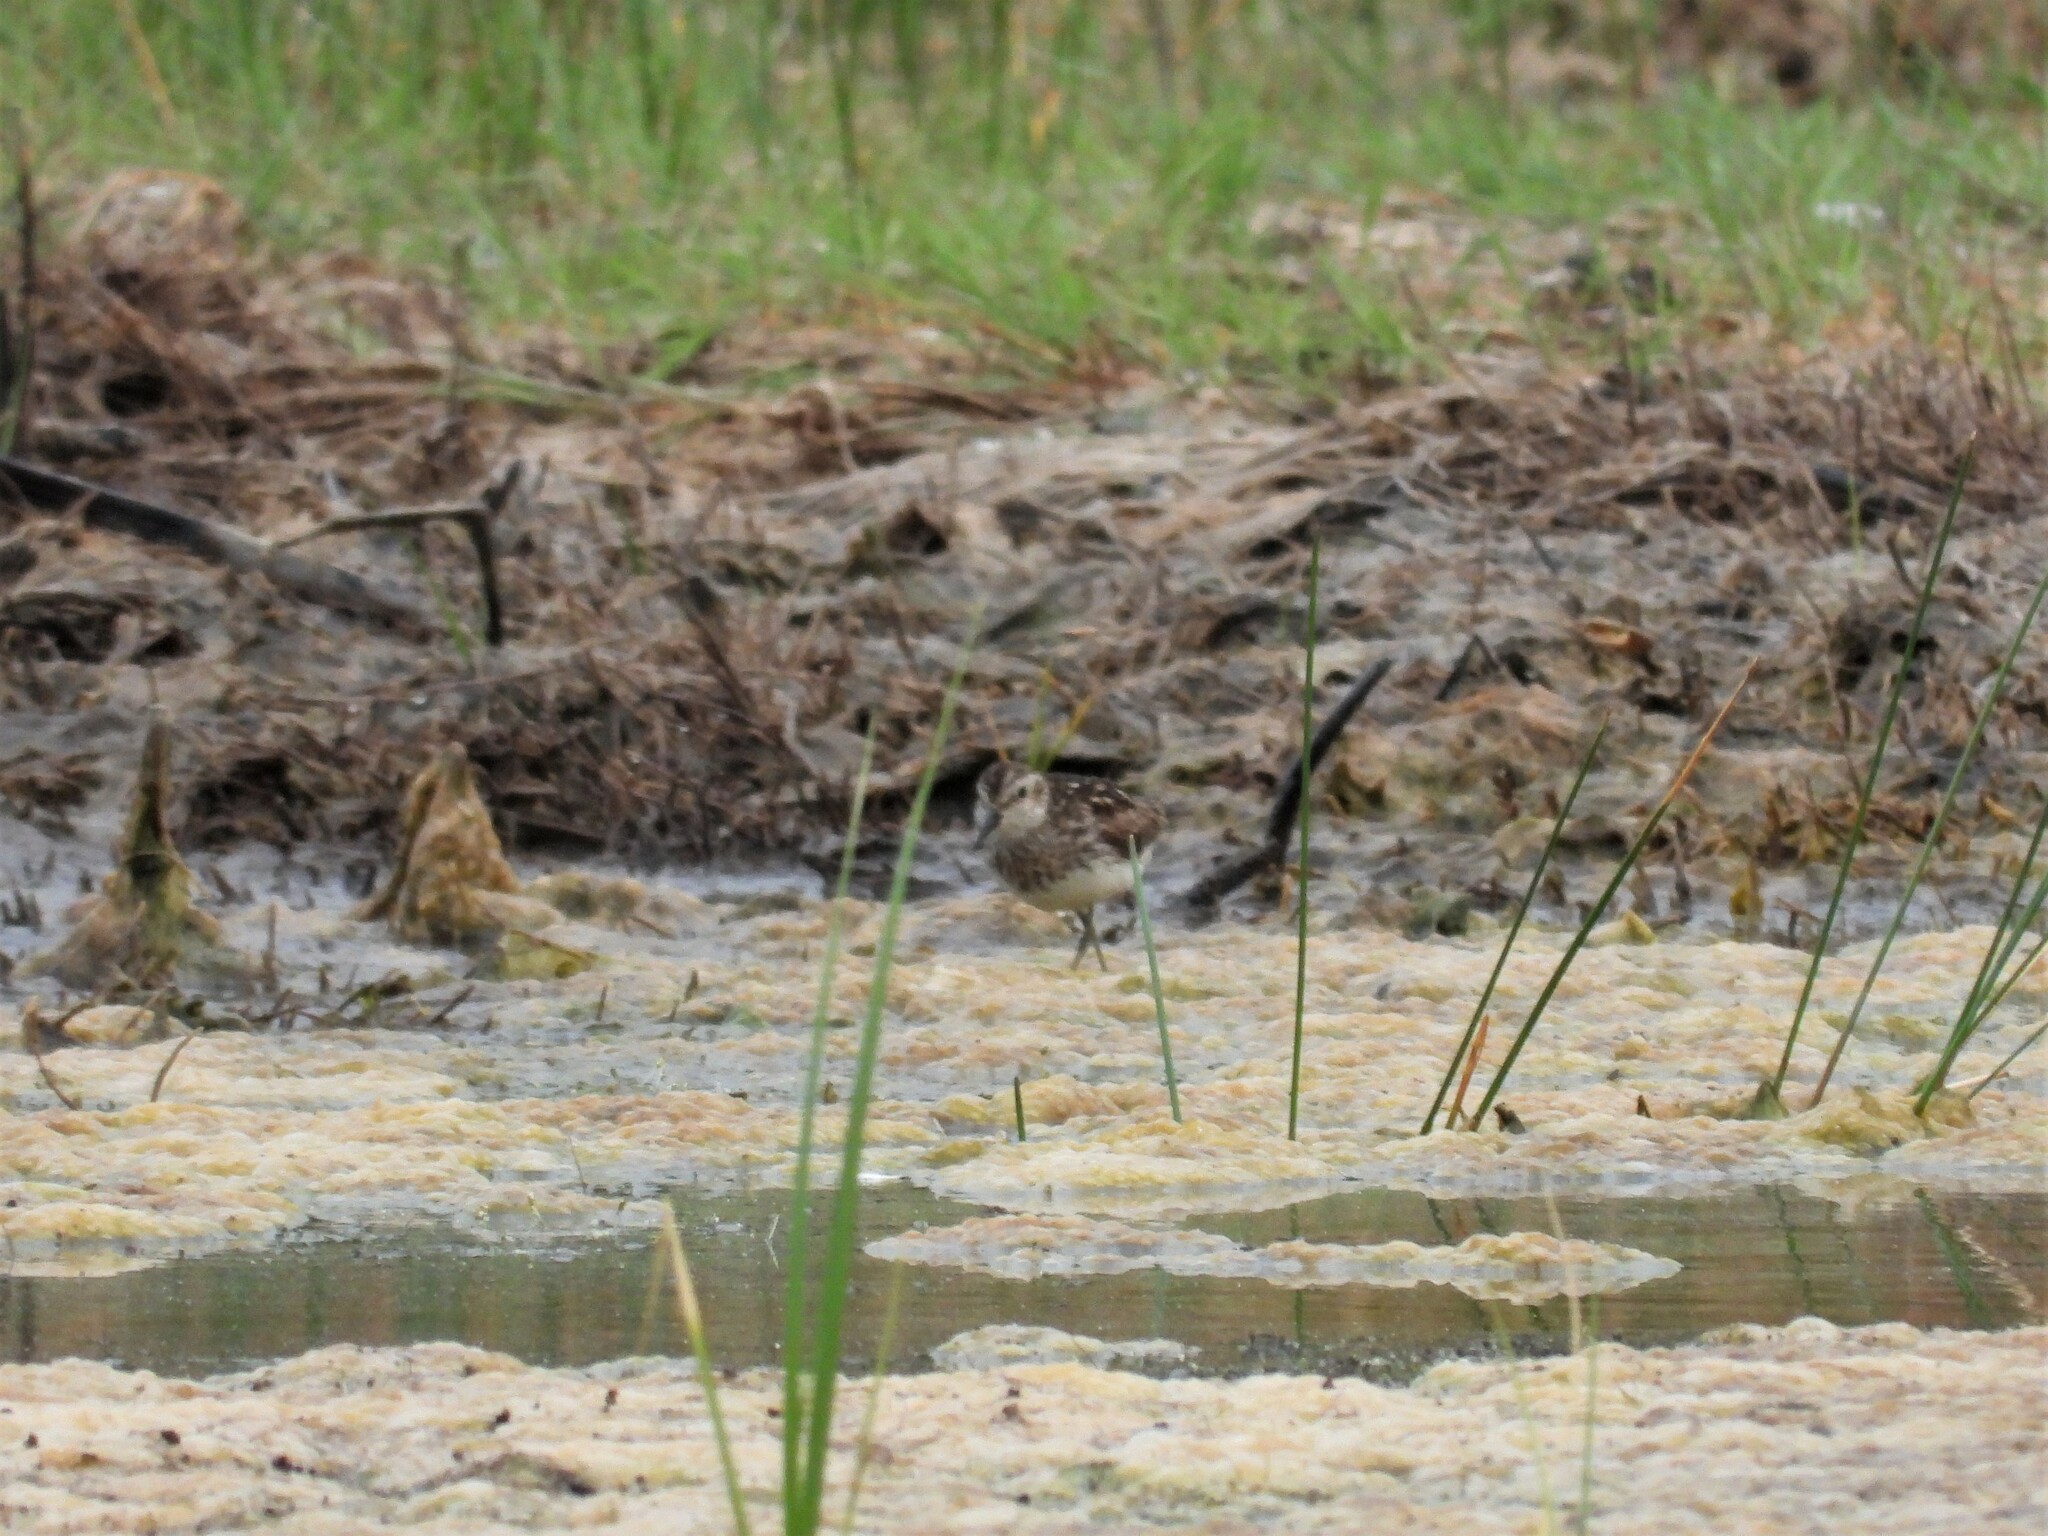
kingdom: Animalia
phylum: Chordata
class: Aves
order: Charadriiformes
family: Scolopacidae
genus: Calidris
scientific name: Calidris minutilla
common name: Least sandpiper
